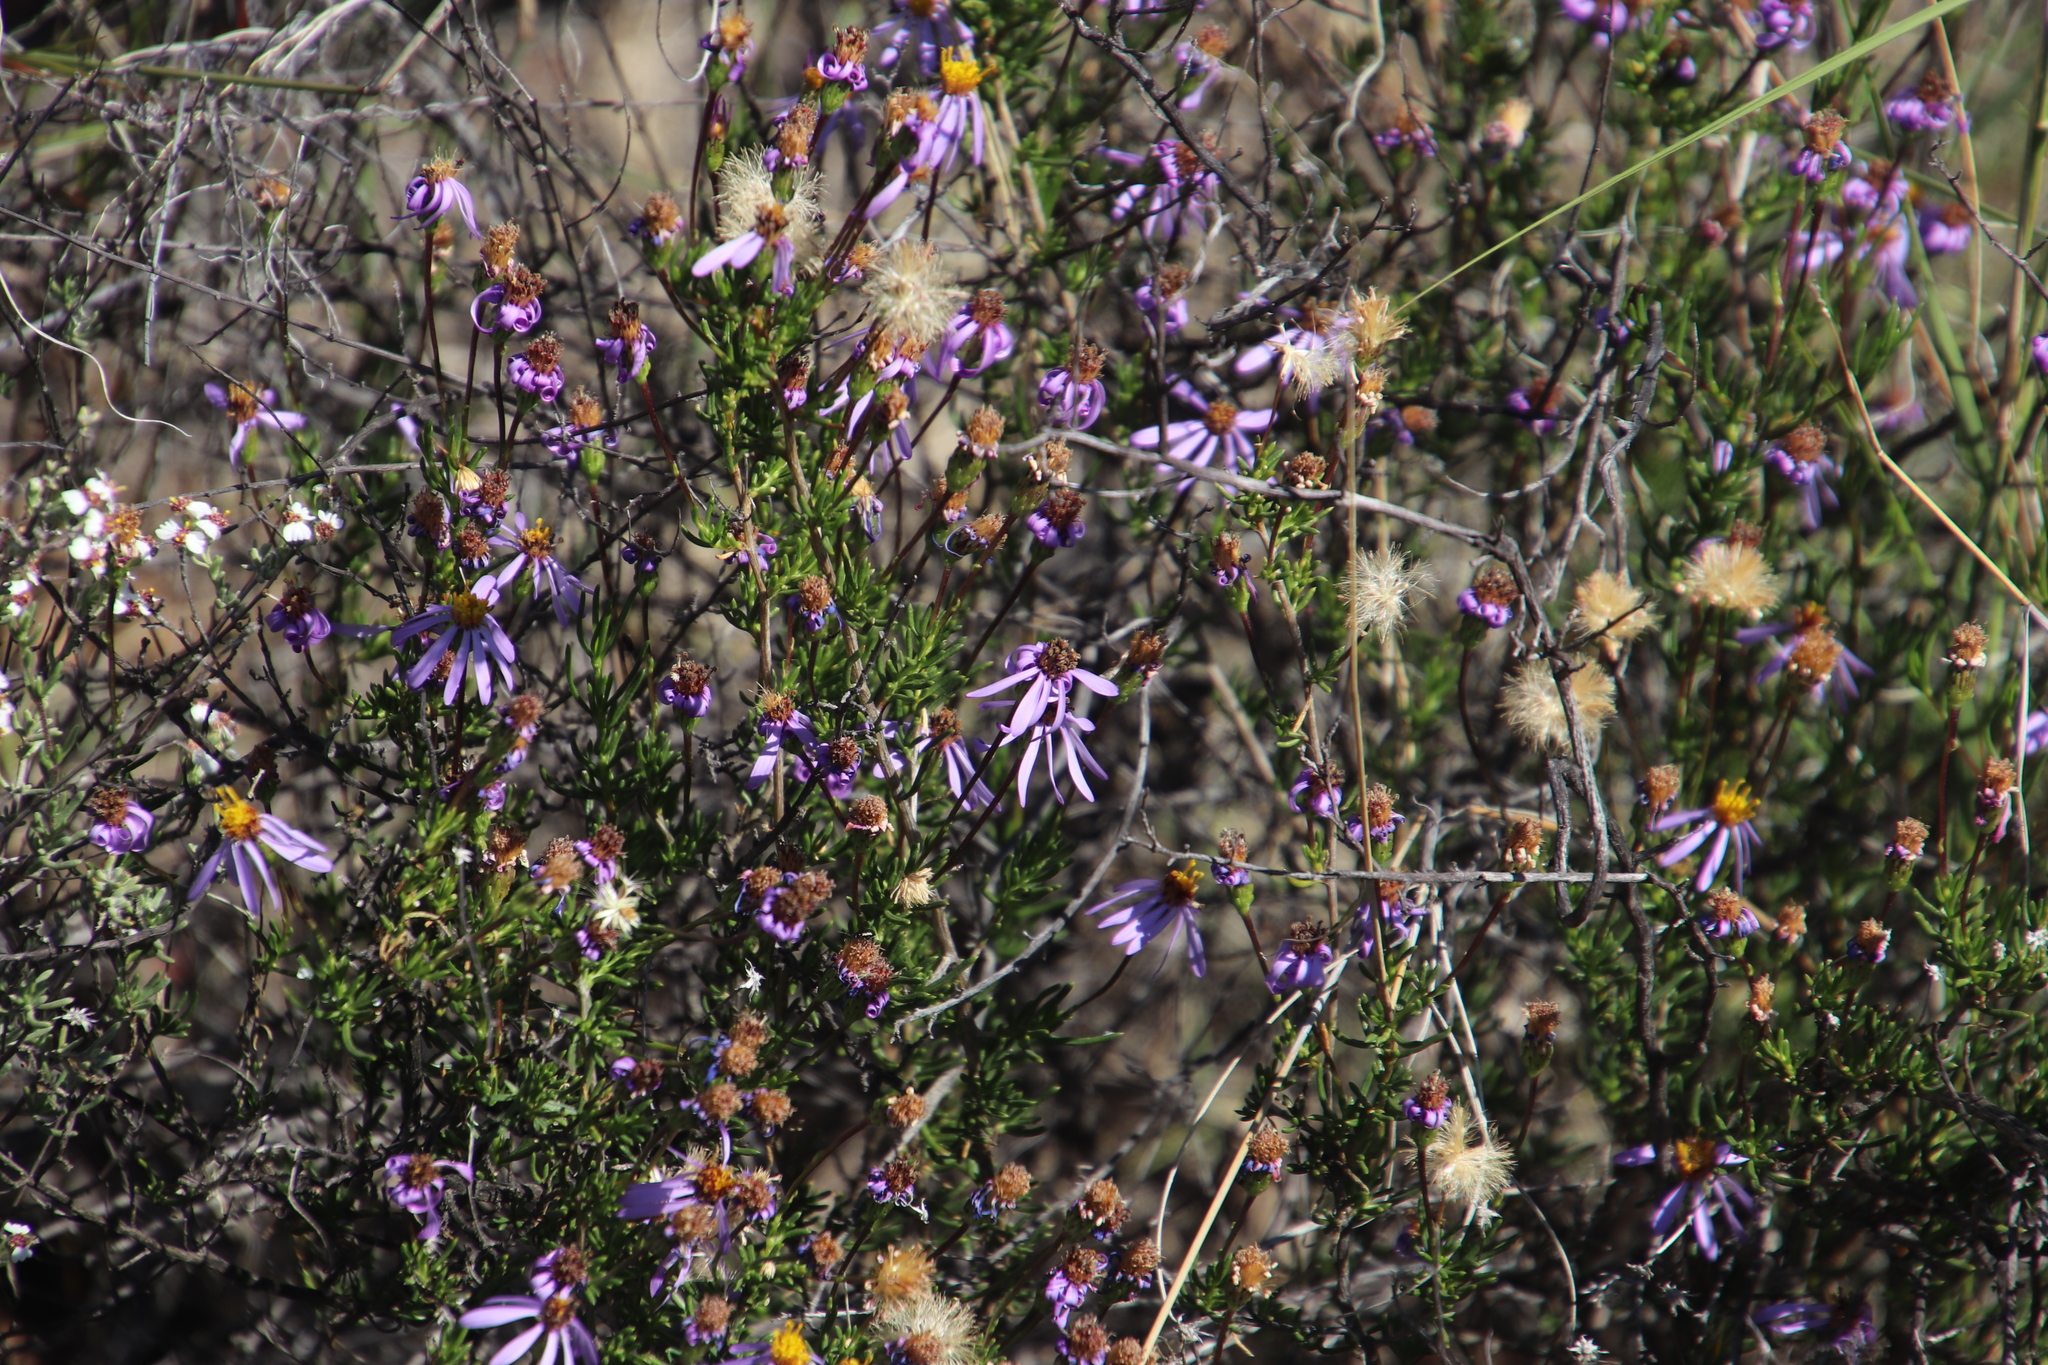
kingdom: Plantae
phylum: Tracheophyta
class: Magnoliopsida
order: Asterales
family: Asteraceae
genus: Felicia
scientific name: Felicia filifolia
